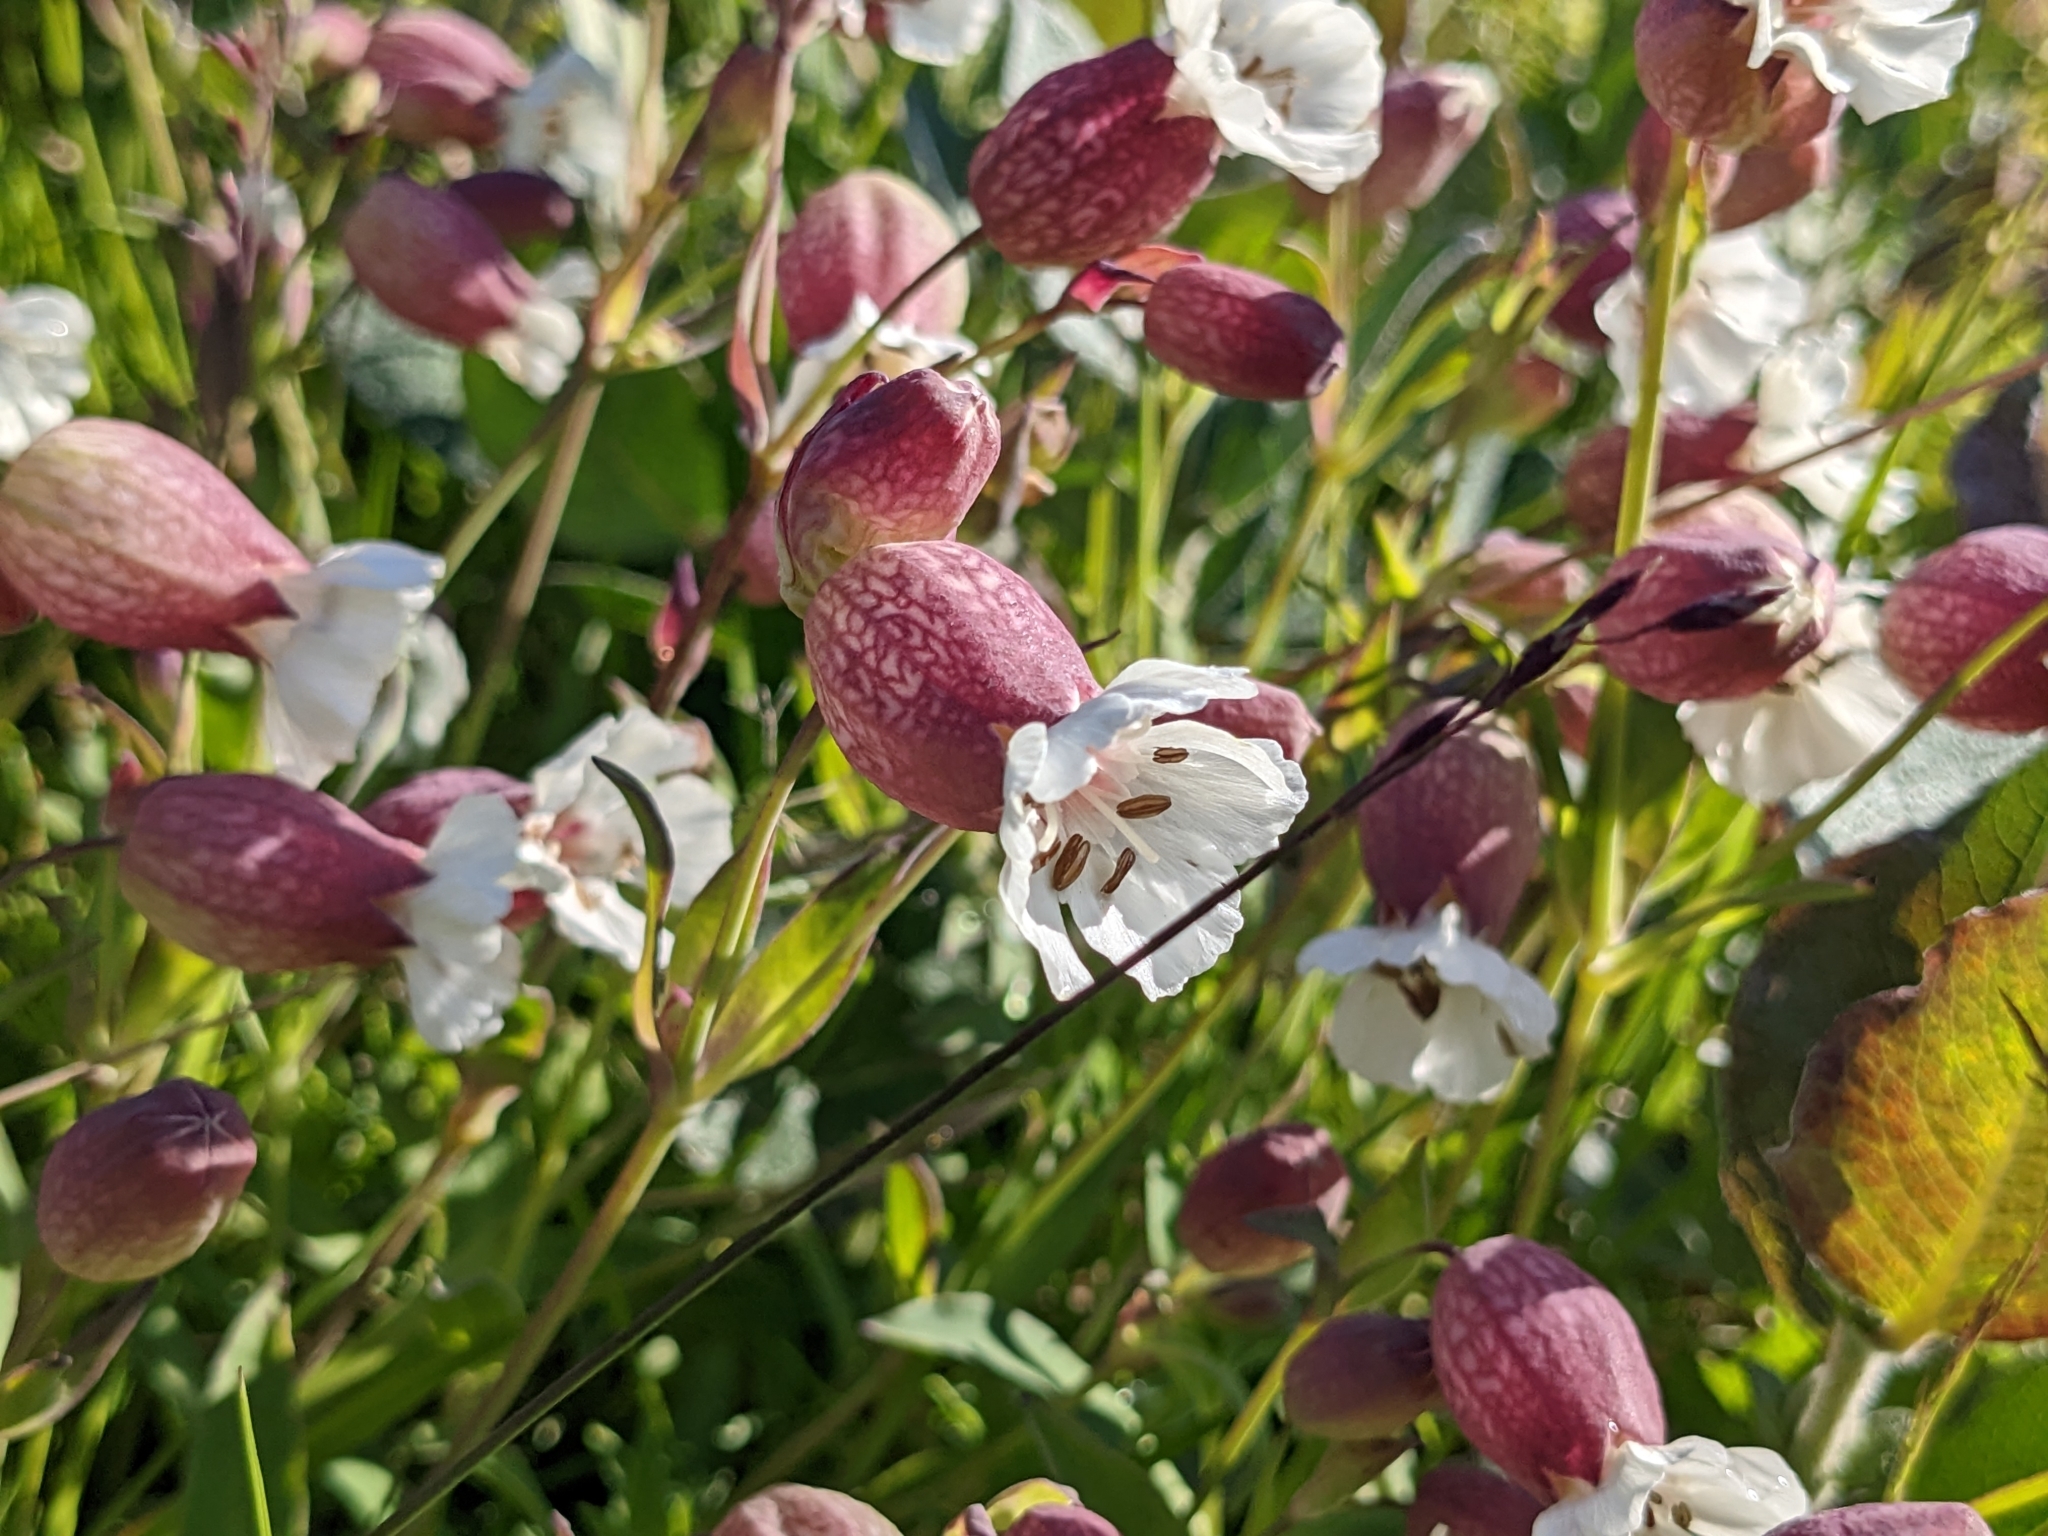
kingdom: Plantae
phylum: Tracheophyta
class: Magnoliopsida
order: Caryophyllales
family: Caryophyllaceae
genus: Silene
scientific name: Silene uniflora
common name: Sea campion
